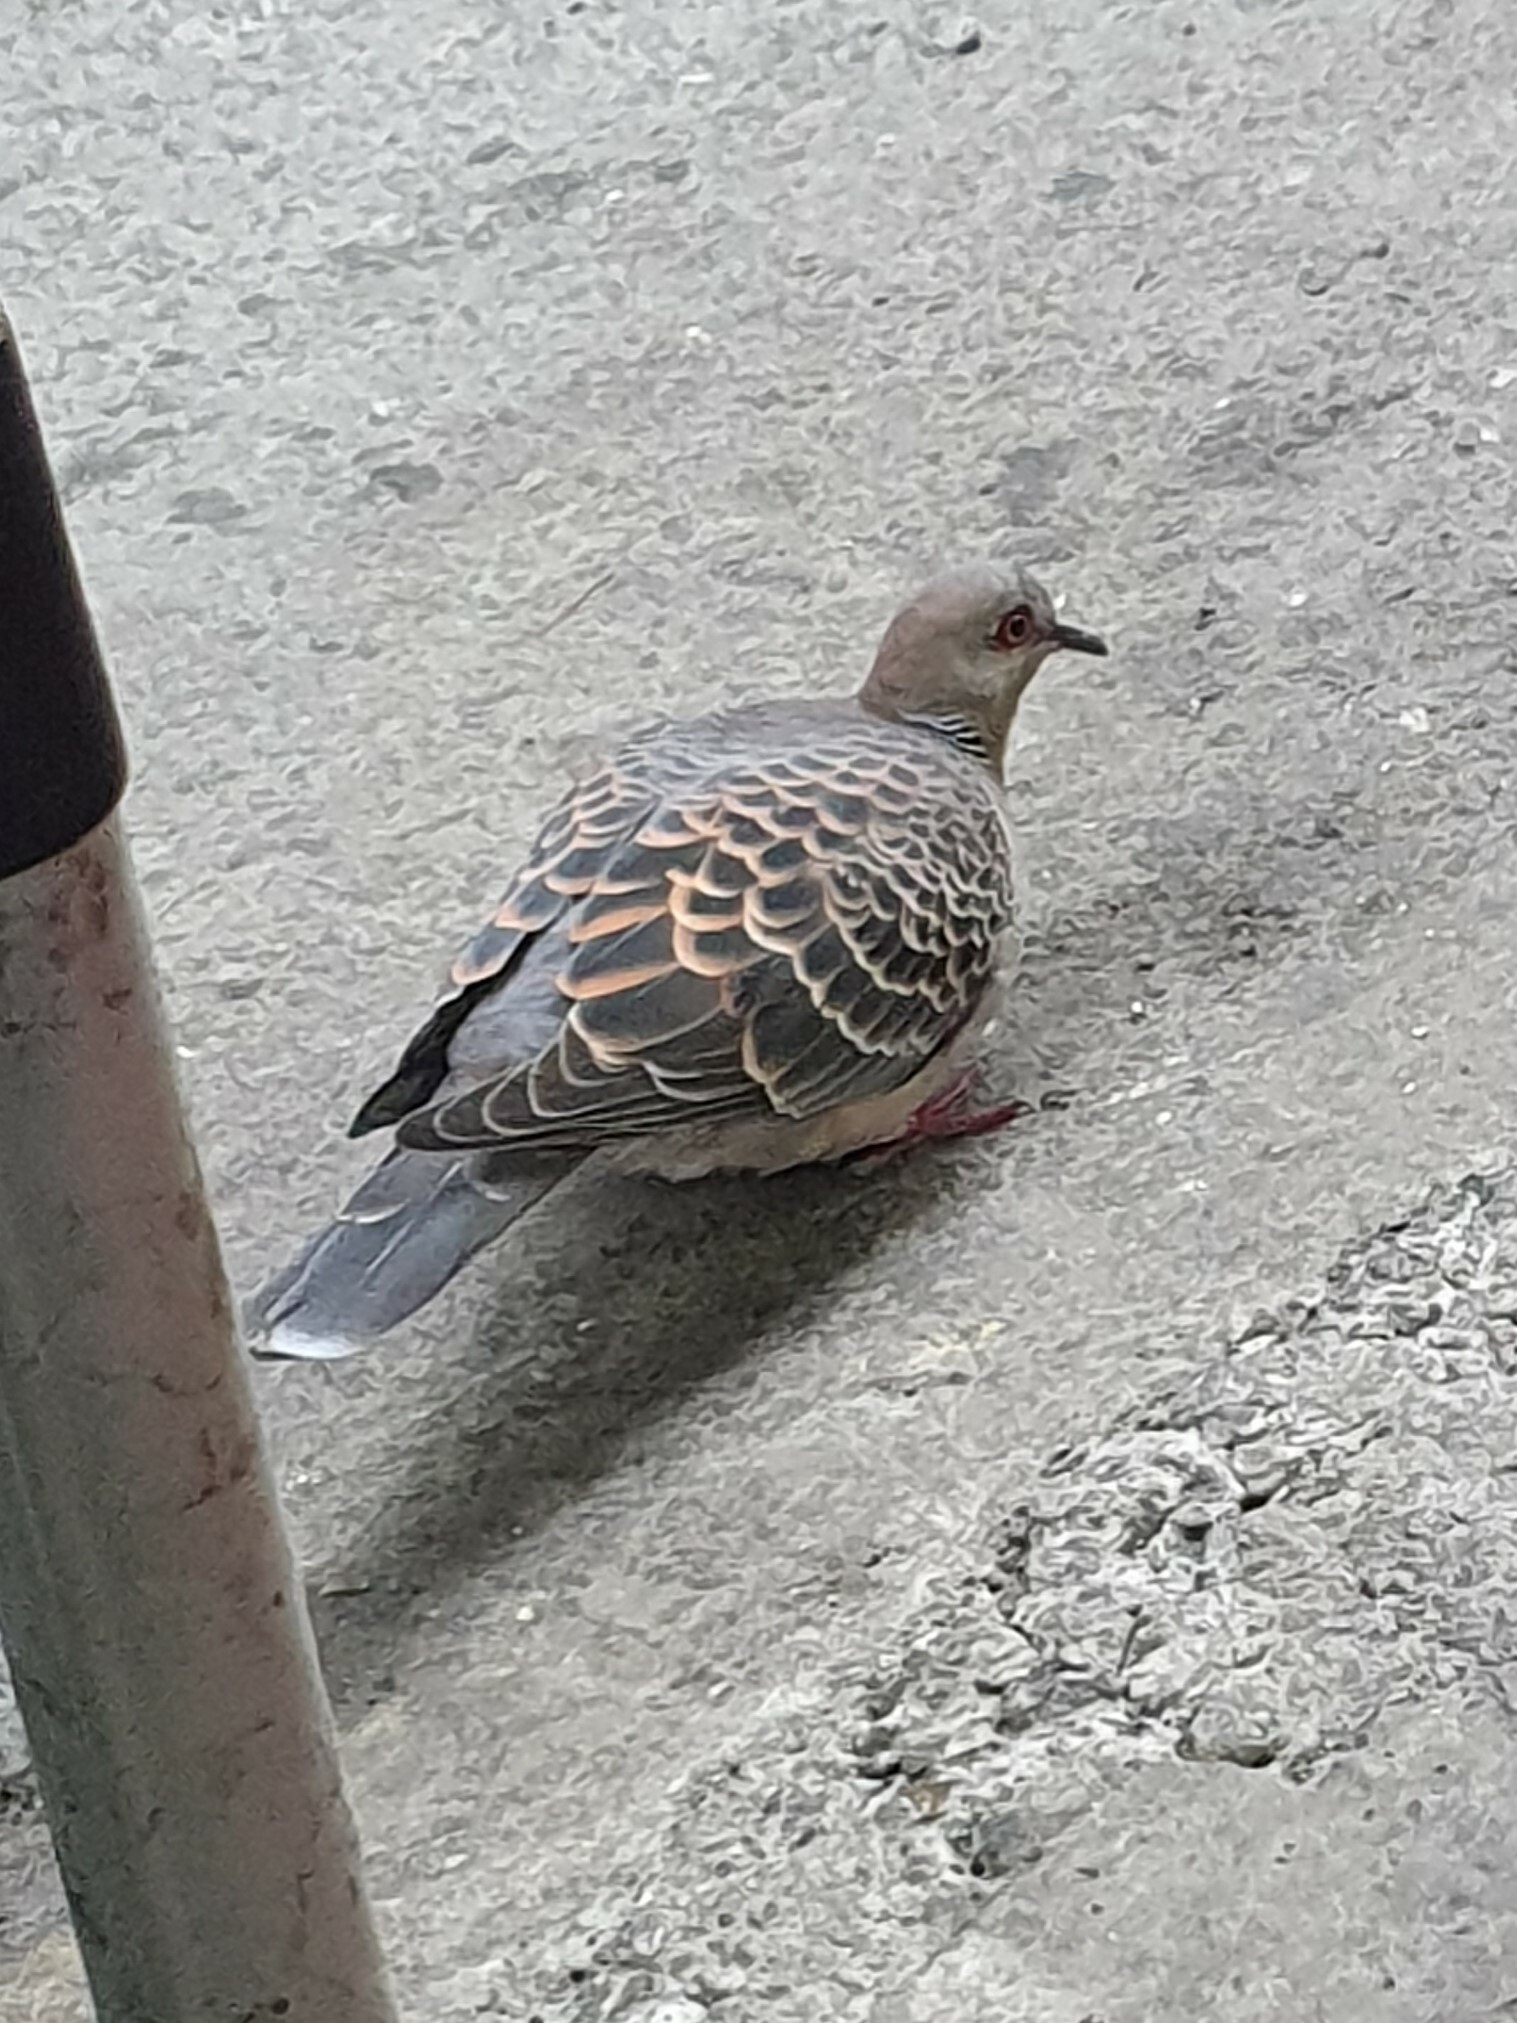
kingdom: Animalia
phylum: Chordata
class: Aves
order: Columbiformes
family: Columbidae
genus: Streptopelia
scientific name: Streptopelia orientalis
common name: Oriental turtle dove
